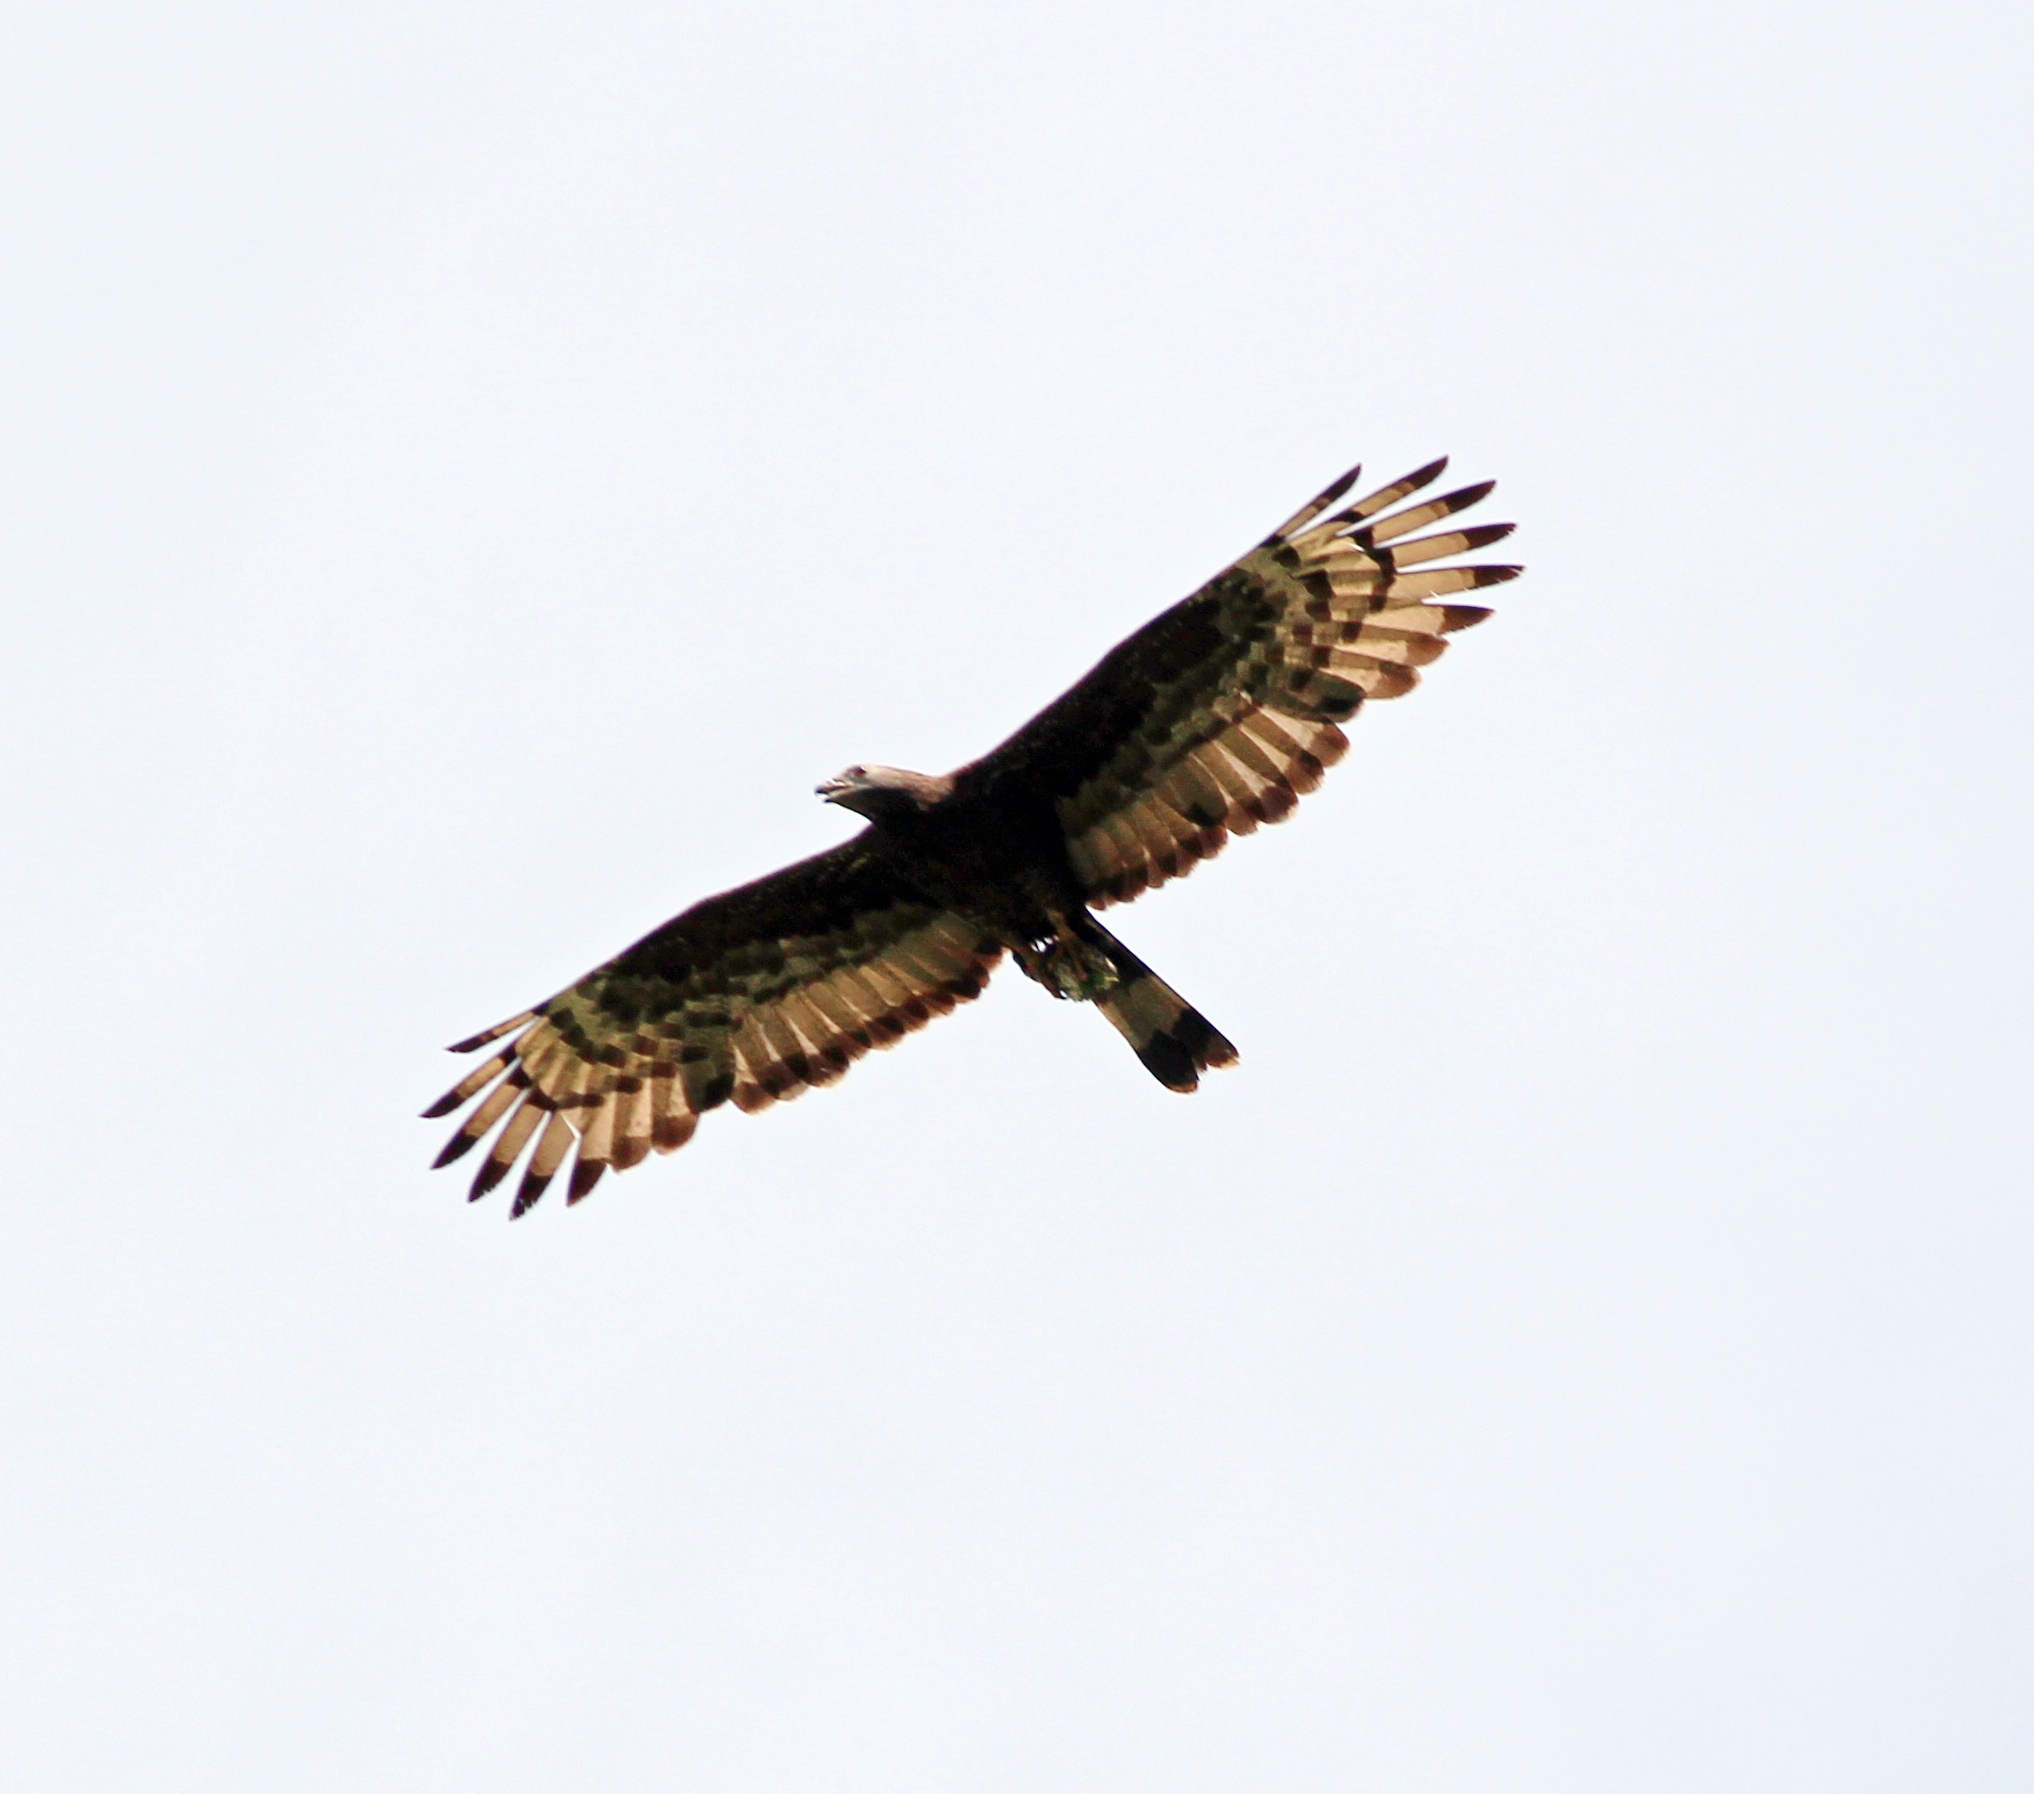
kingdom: Animalia
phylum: Chordata
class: Aves
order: Accipitriformes
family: Accipitridae
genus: Pernis
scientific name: Pernis ptilorhynchus
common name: Crested honey buzzard
